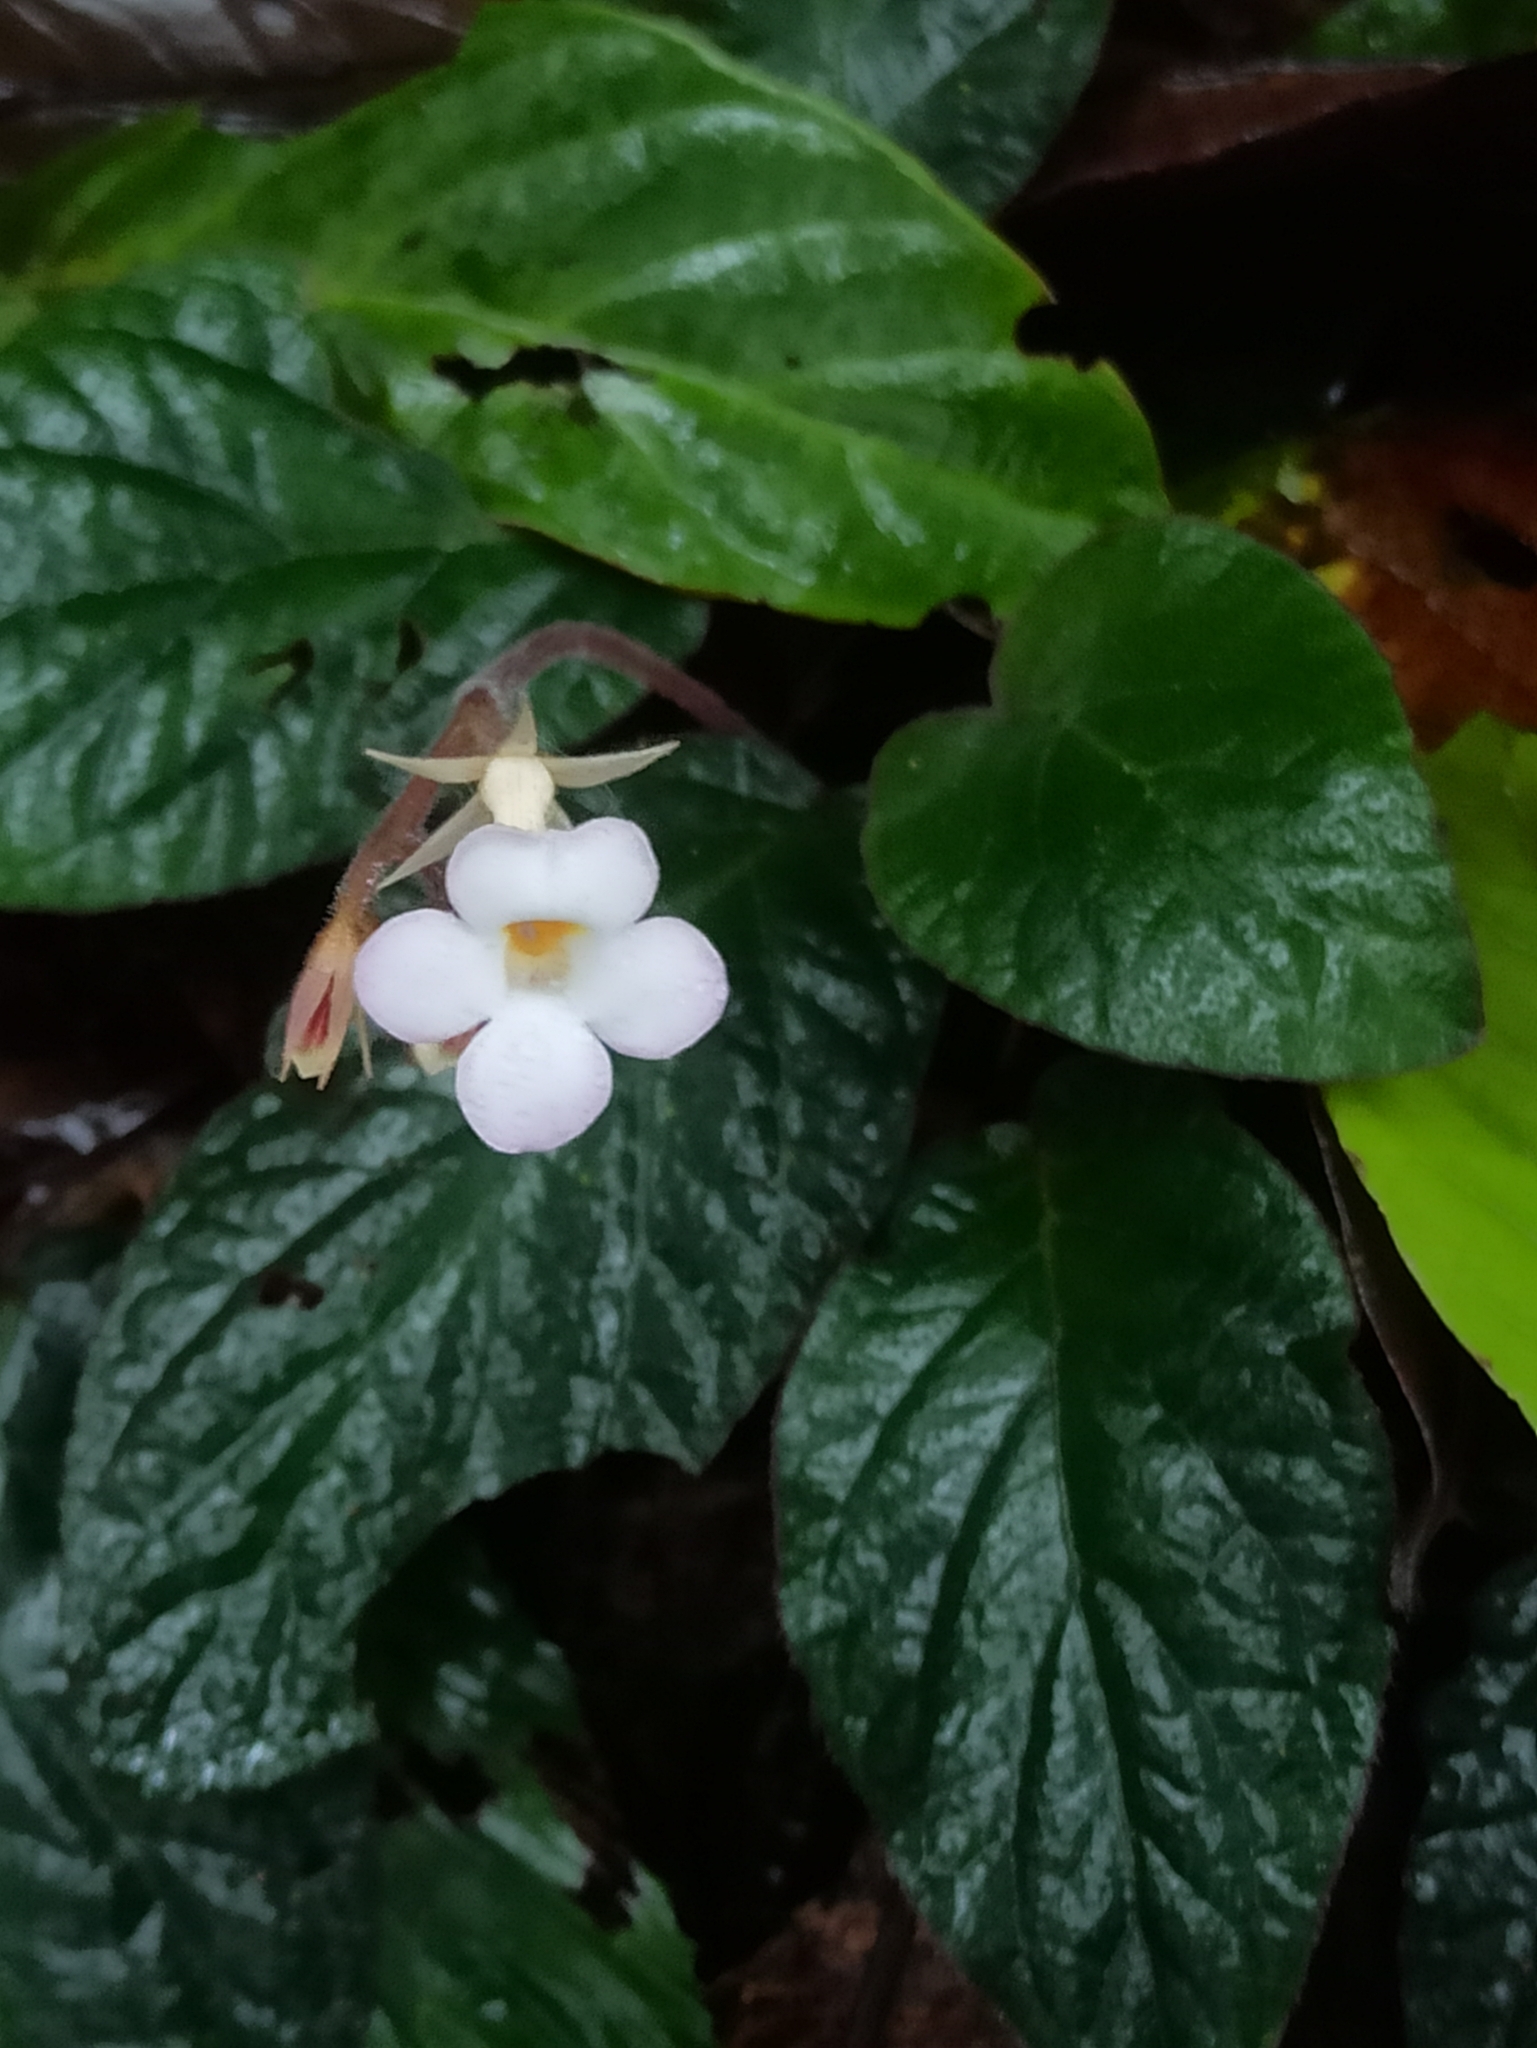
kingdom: Plantae
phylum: Tracheophyta
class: Magnoliopsida
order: Lamiales
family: Gesneriaceae
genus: Jerdonia
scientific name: Jerdonia indica
